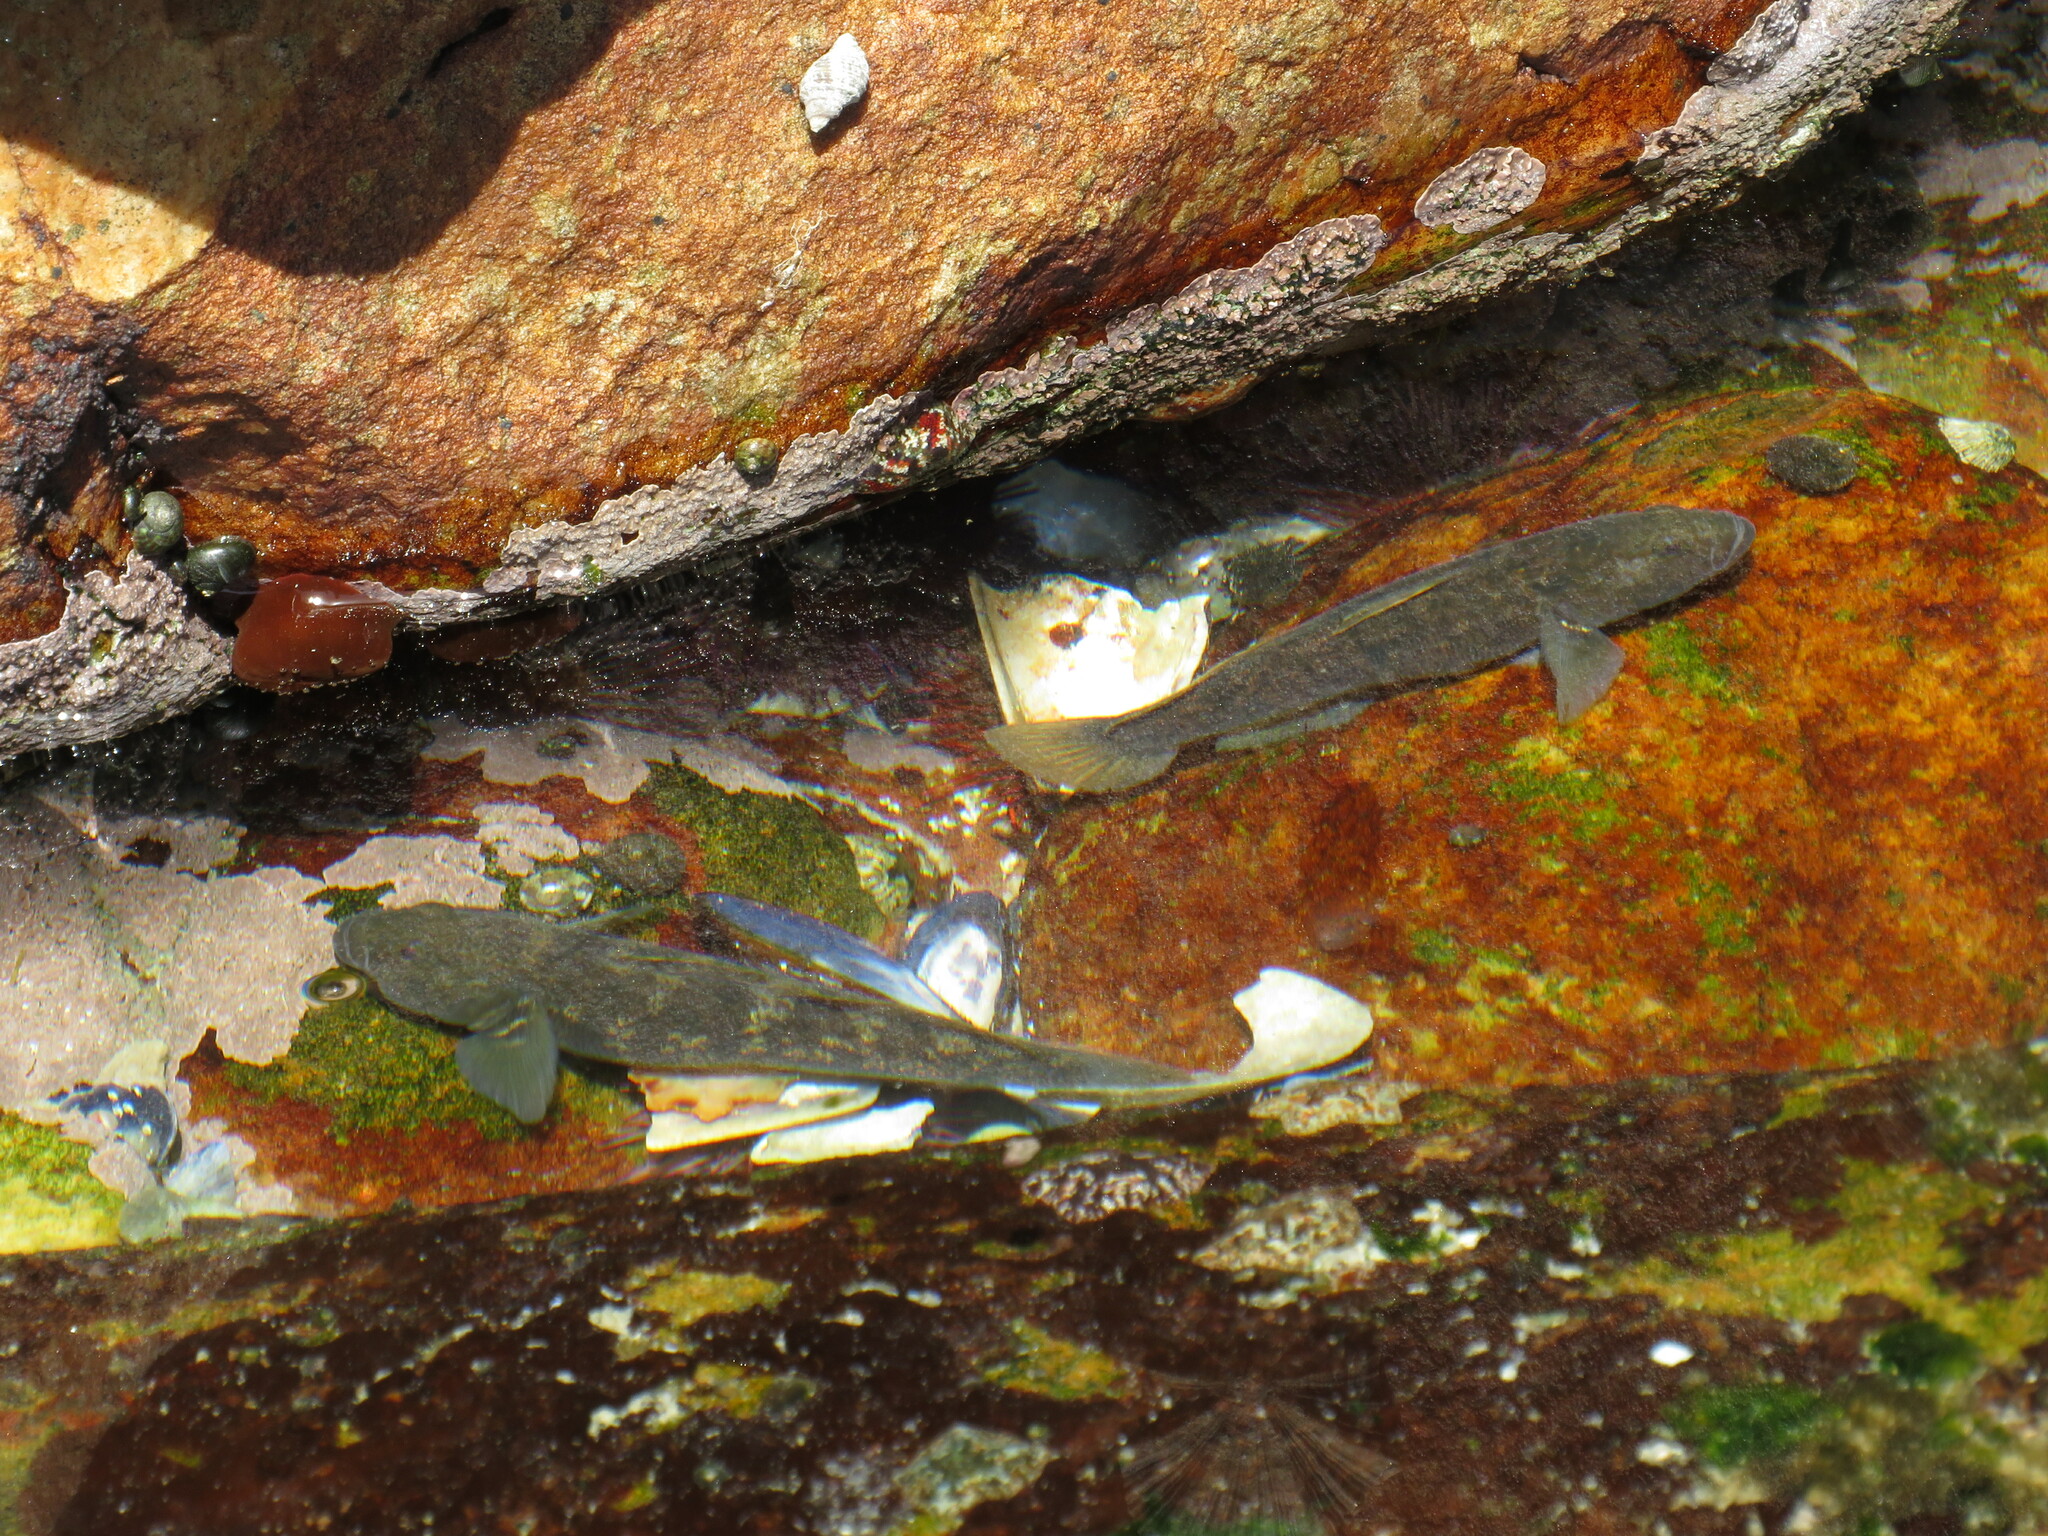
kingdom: Animalia
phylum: Chordata
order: Perciformes
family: Gobiidae
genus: Caffrogobius
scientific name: Caffrogobius caffer
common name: Banded goby
